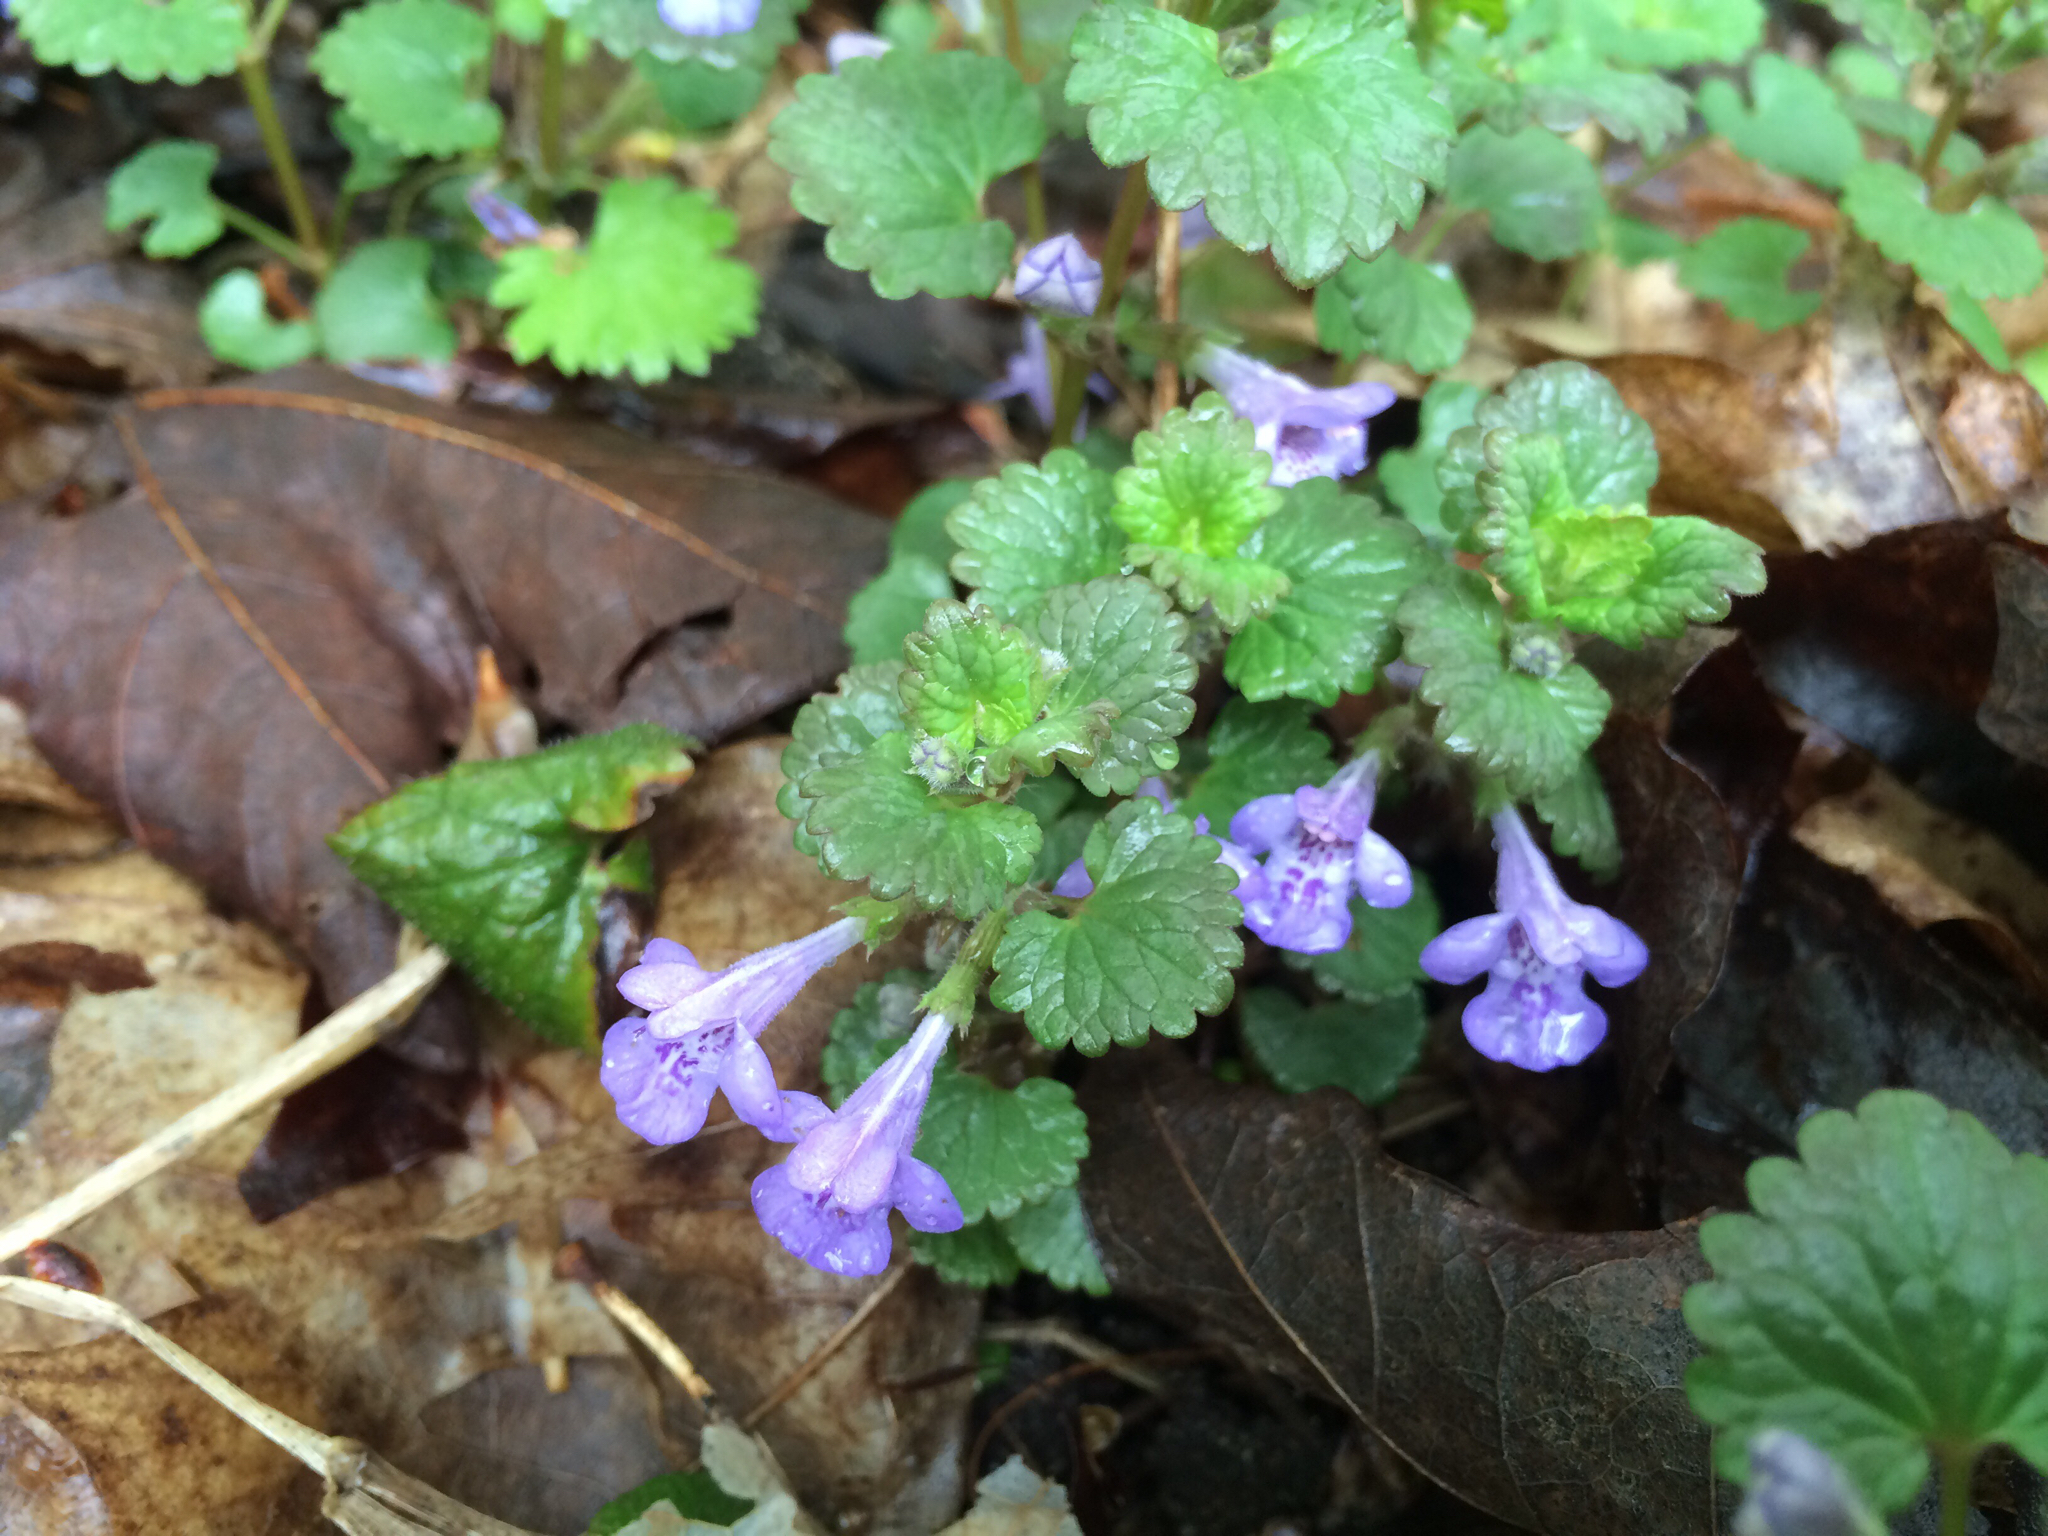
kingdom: Plantae
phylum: Tracheophyta
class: Magnoliopsida
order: Lamiales
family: Lamiaceae
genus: Glechoma
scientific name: Glechoma hederacea
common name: Ground ivy
